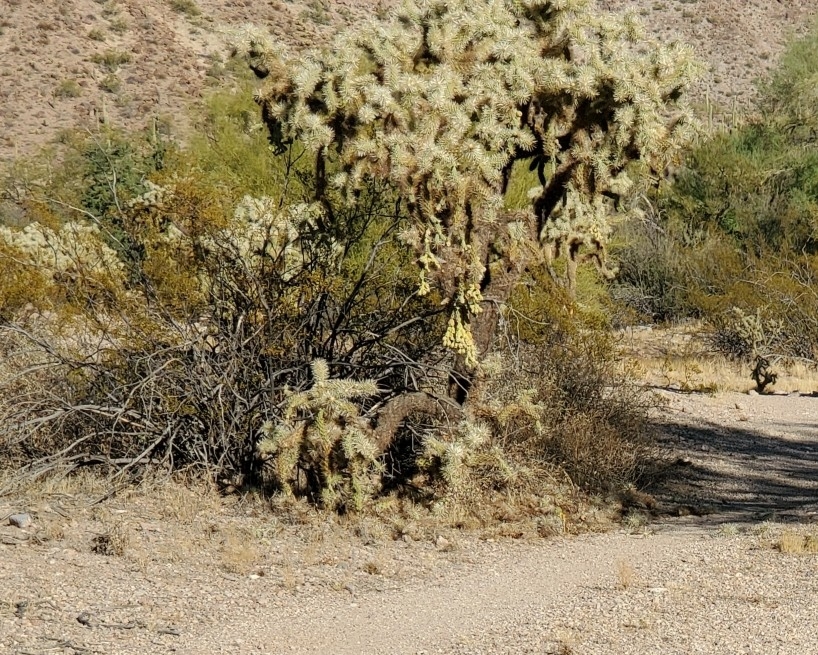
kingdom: Plantae
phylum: Tracheophyta
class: Magnoliopsida
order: Caryophyllales
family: Cactaceae
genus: Cylindropuntia
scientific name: Cylindropuntia fulgida
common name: Jumping cholla
